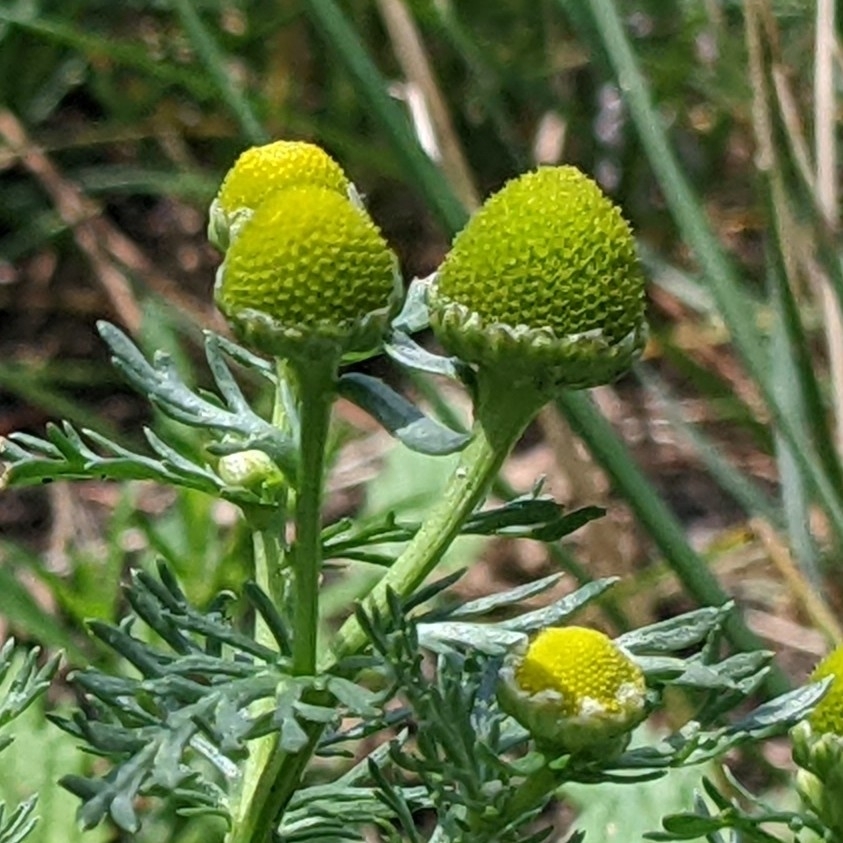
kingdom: Plantae
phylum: Tracheophyta
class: Magnoliopsida
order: Asterales
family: Asteraceae
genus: Matricaria
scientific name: Matricaria discoidea
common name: Disc mayweed
